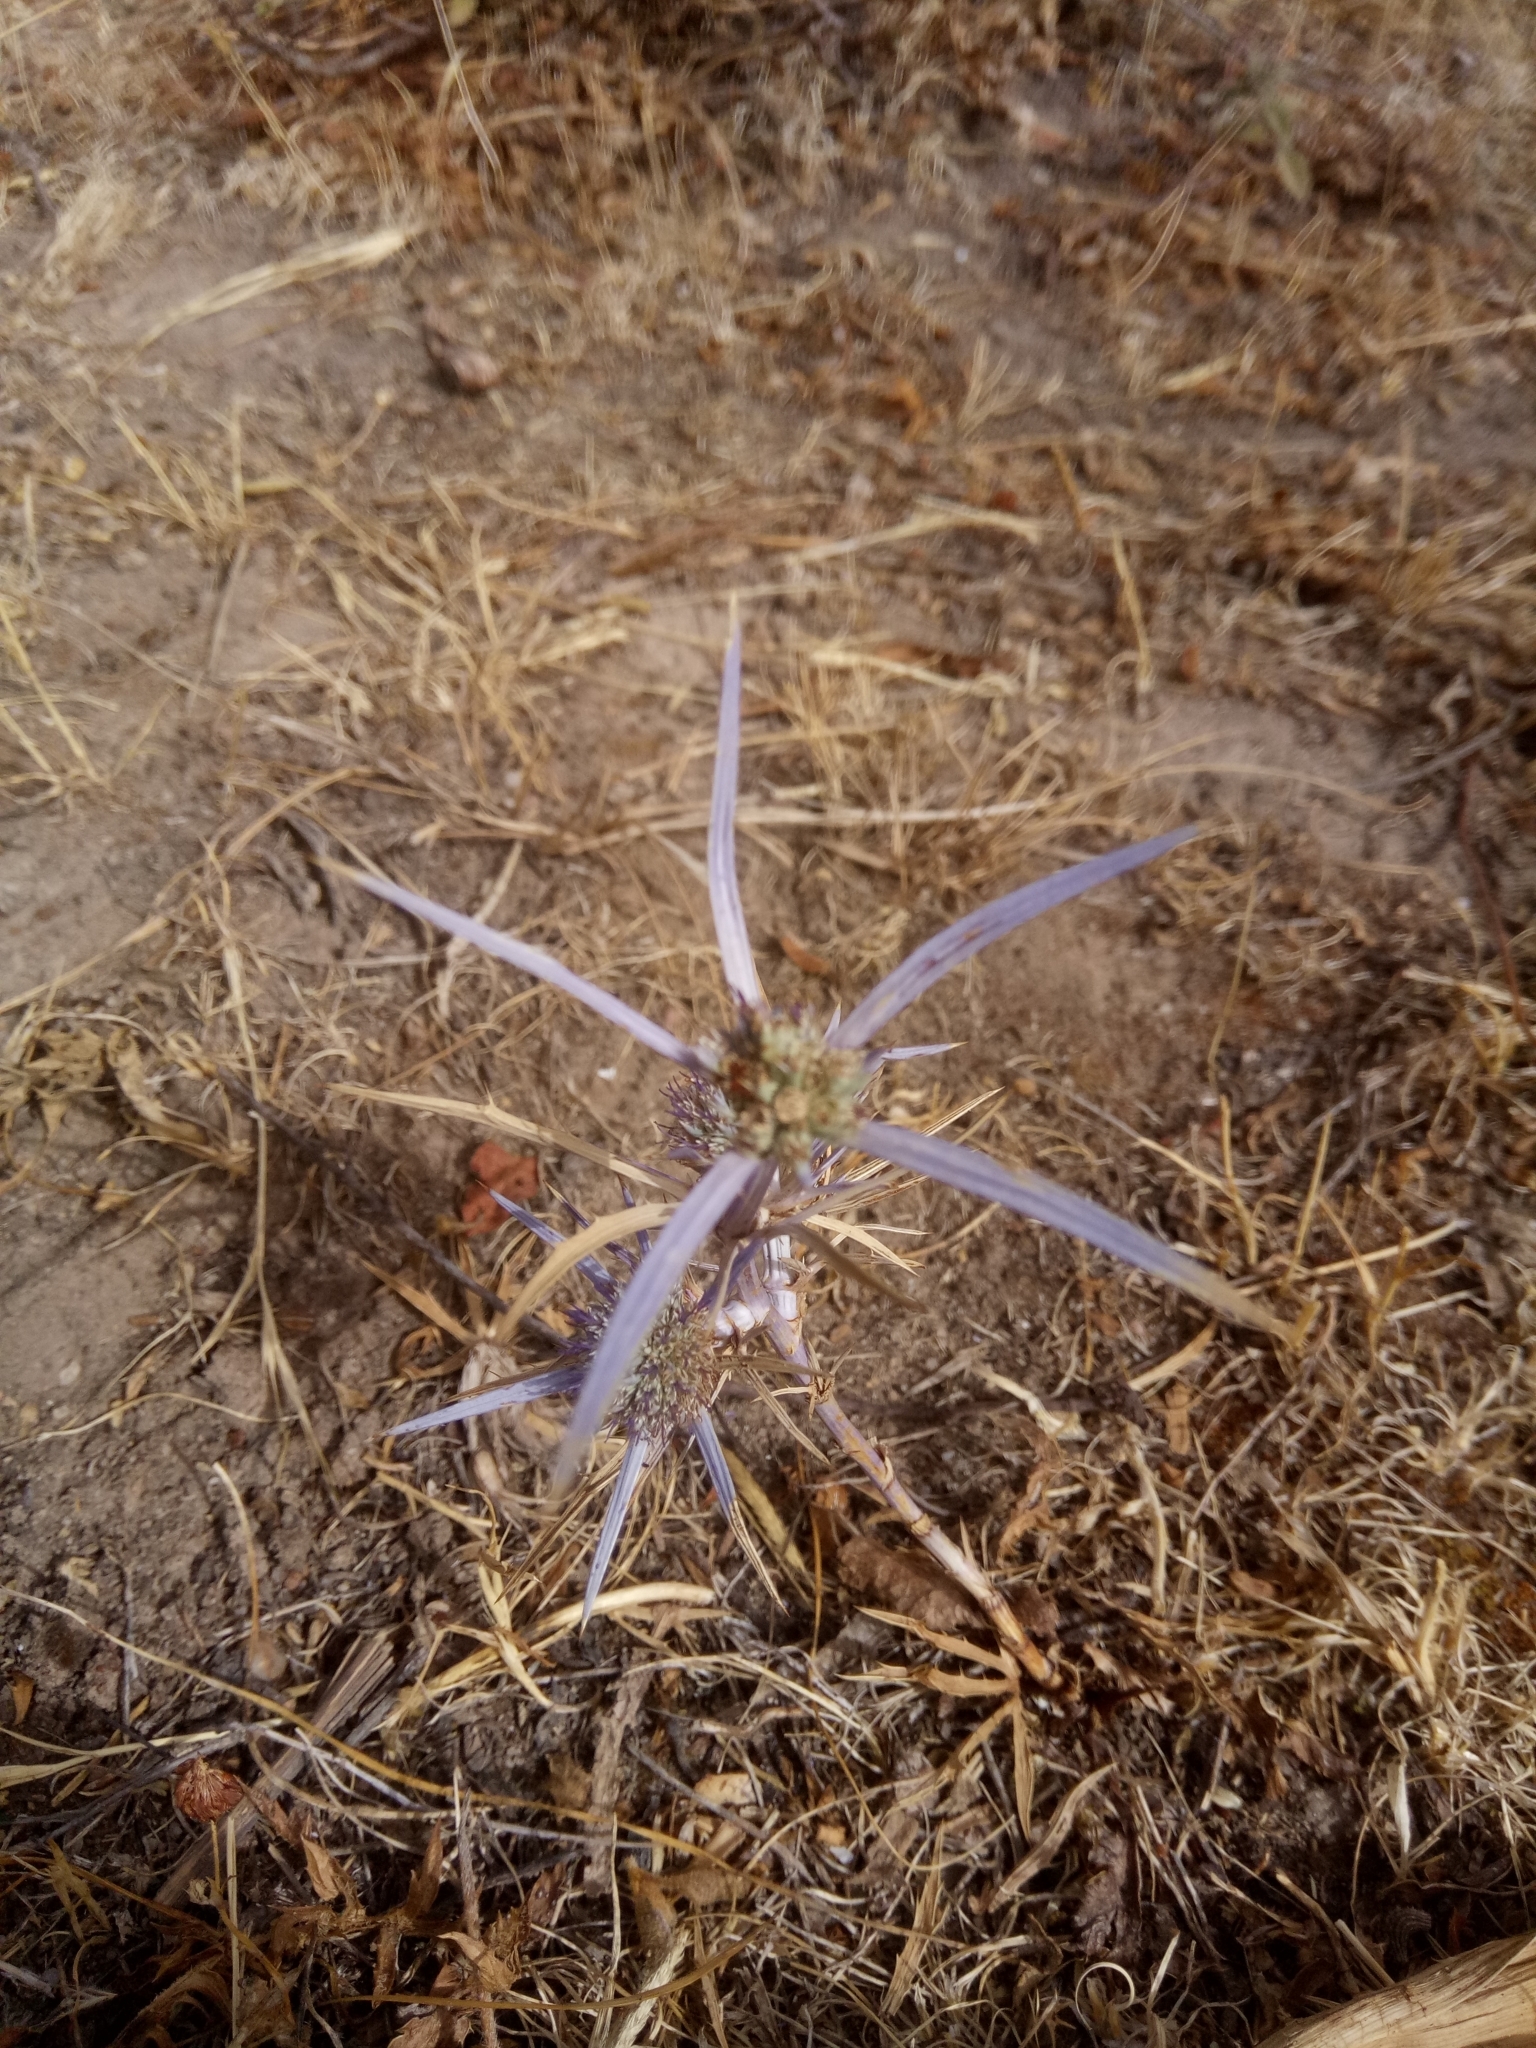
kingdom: Plantae
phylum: Tracheophyta
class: Magnoliopsida
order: Apiales
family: Apiaceae
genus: Eryngium
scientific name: Eryngium tricuspidatum
